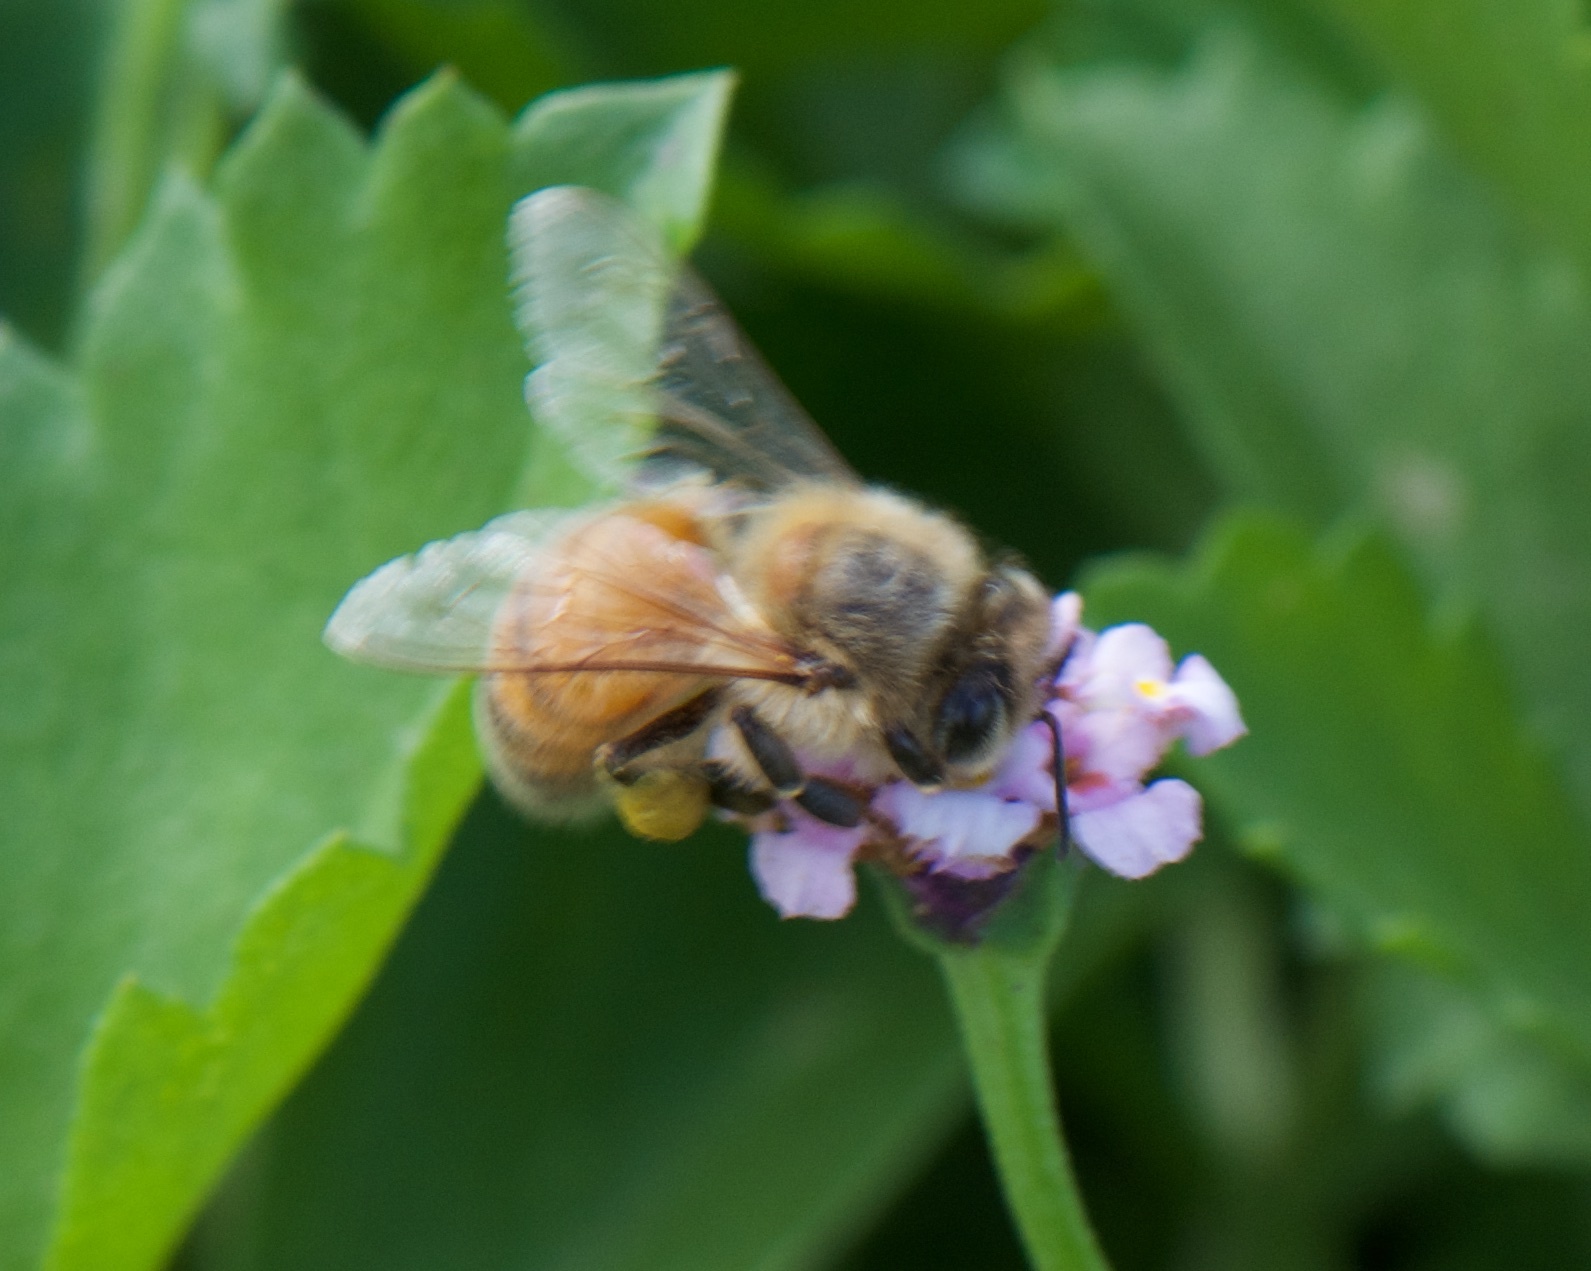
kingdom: Animalia
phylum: Arthropoda
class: Insecta
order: Hymenoptera
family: Apidae
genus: Apis
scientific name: Apis mellifera
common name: Honey bee
